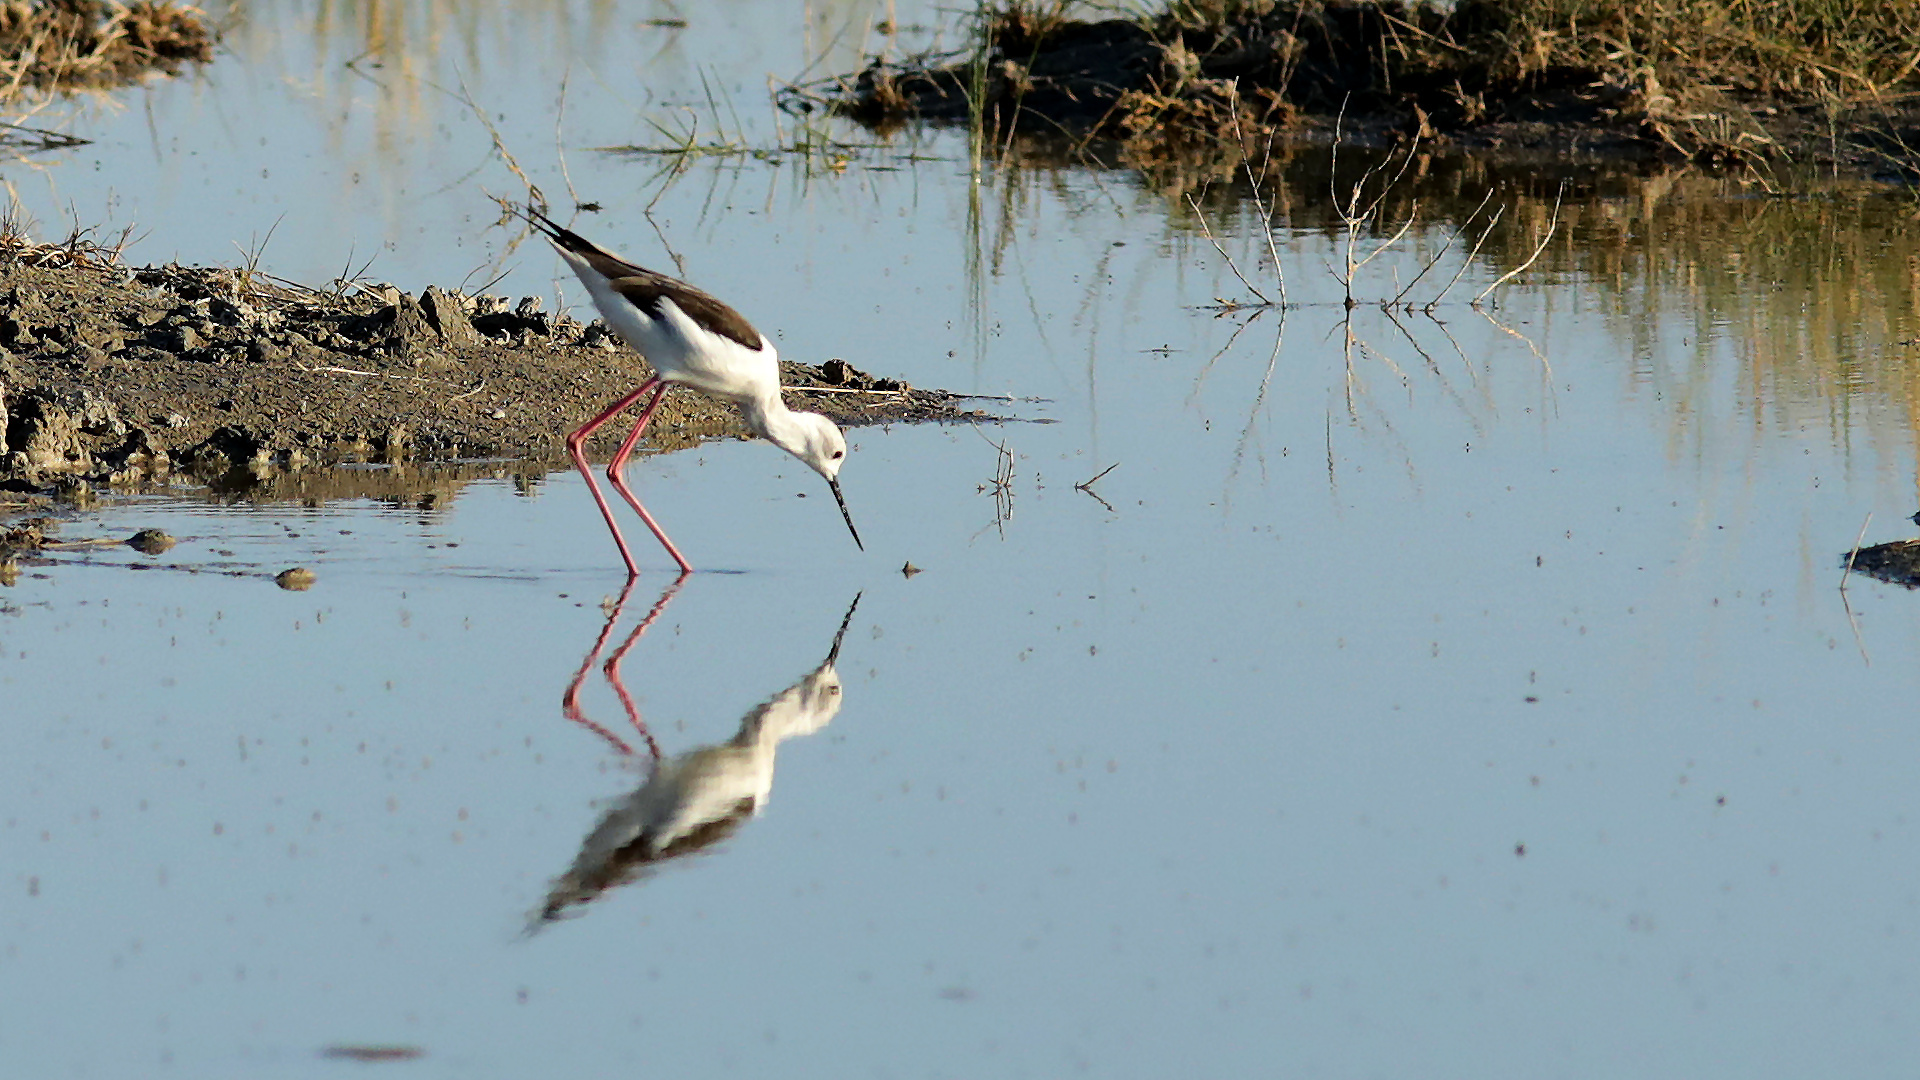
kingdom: Animalia
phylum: Chordata
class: Aves
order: Charadriiformes
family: Recurvirostridae
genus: Himantopus
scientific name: Himantopus himantopus
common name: Black-winged stilt
